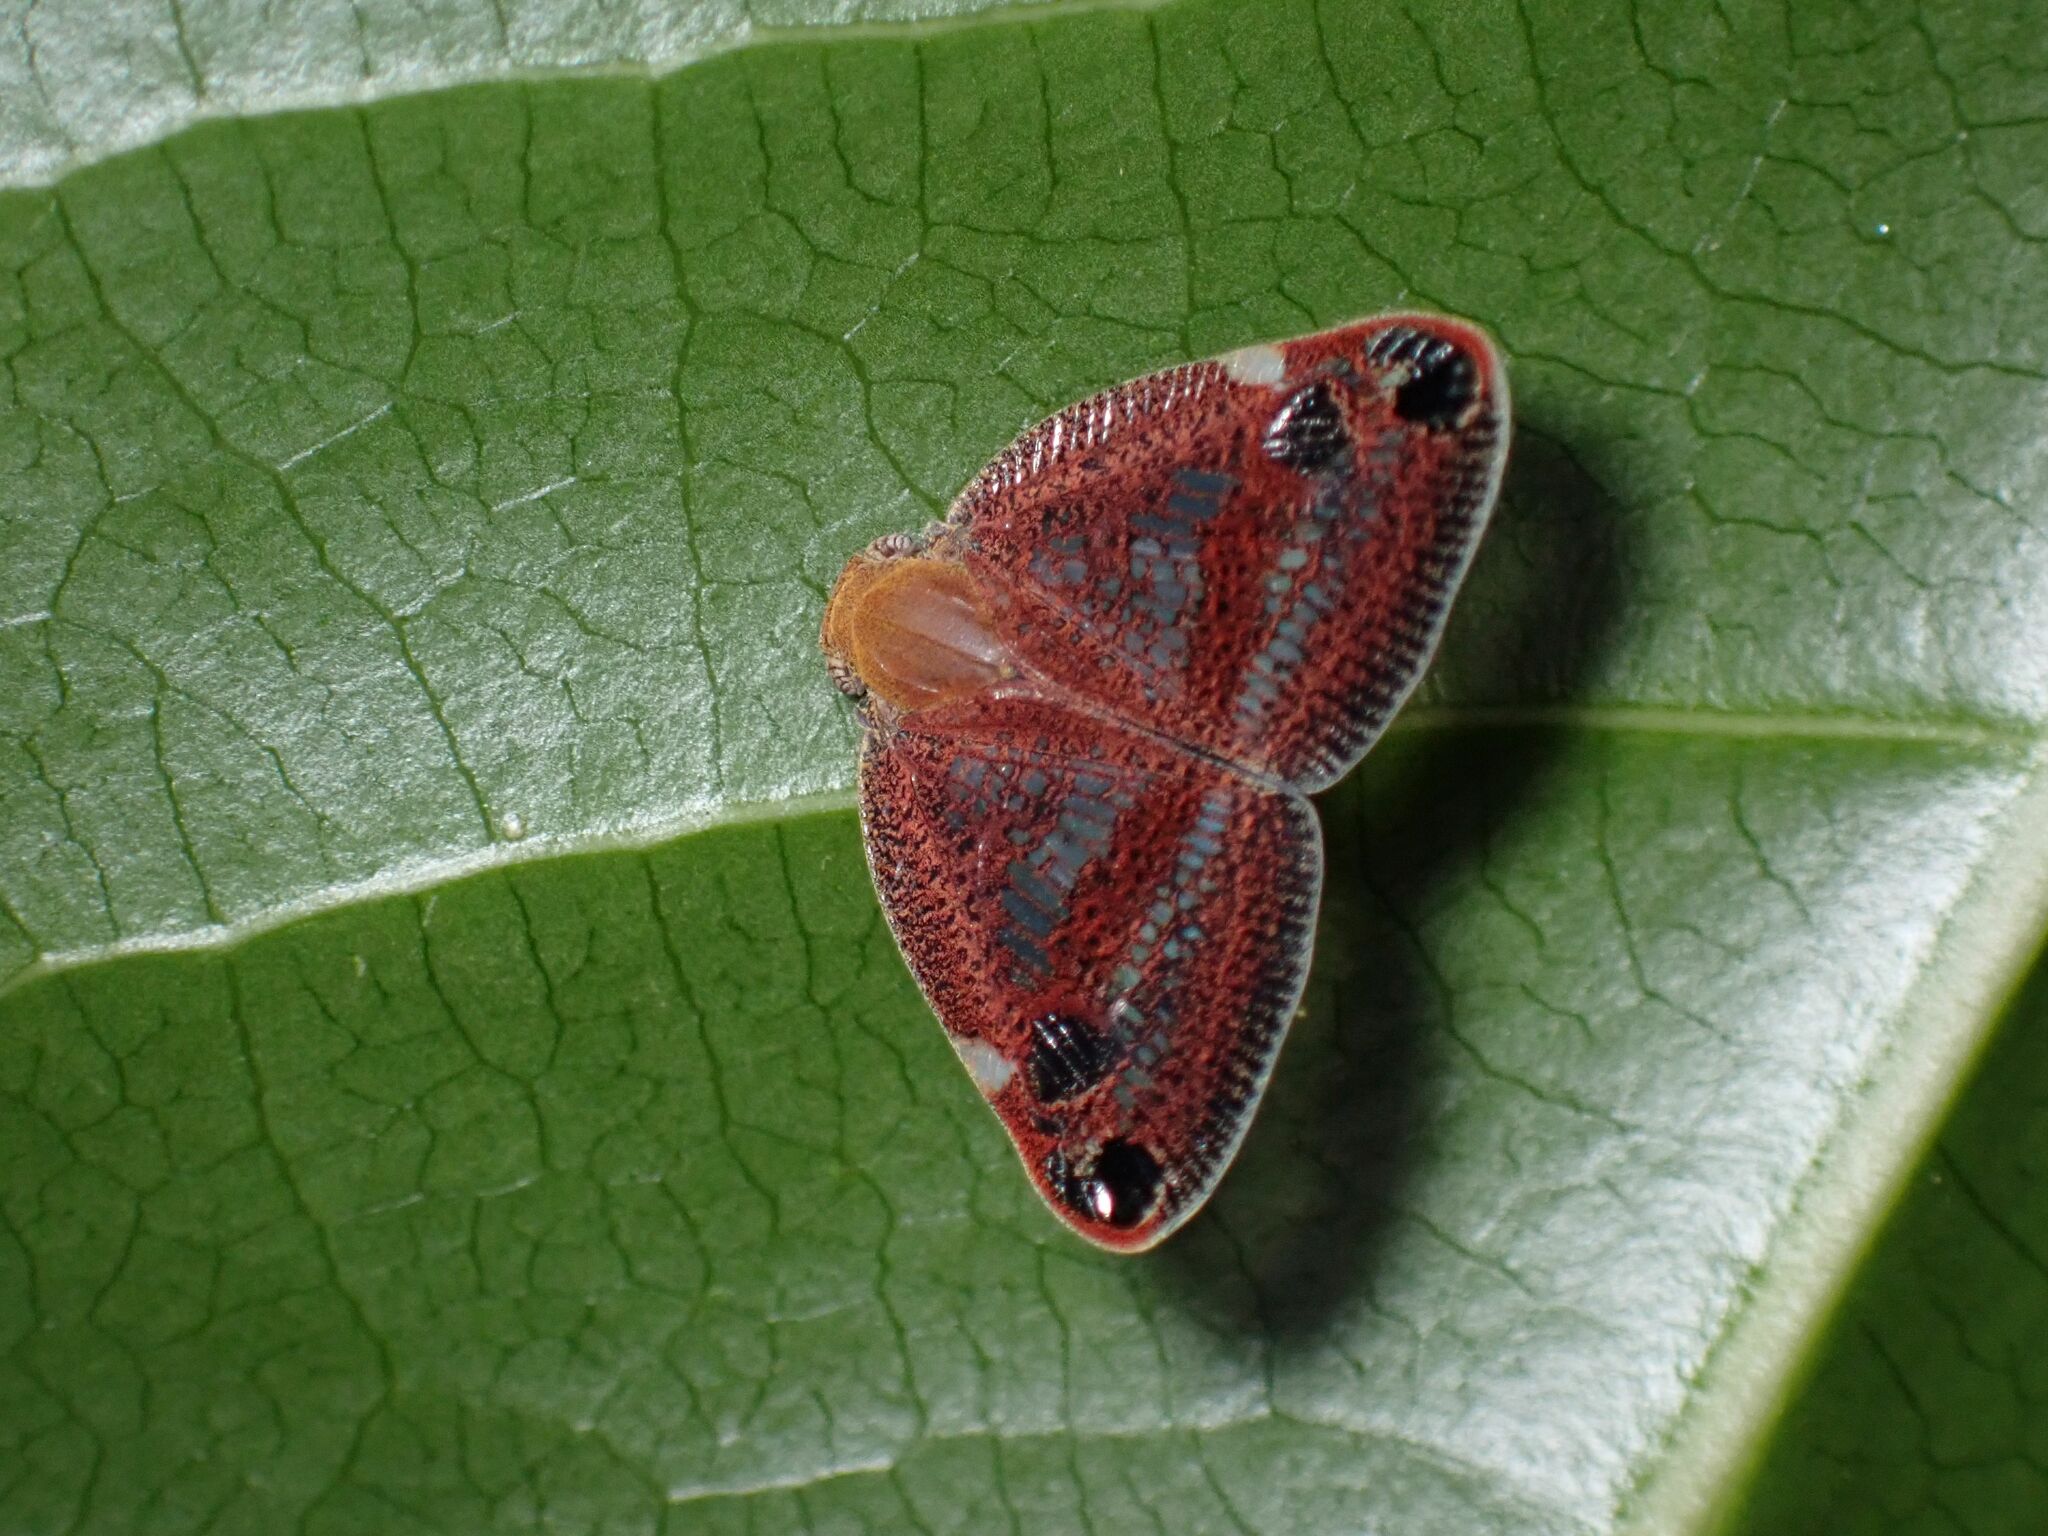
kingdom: Animalia
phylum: Arthropoda
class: Insecta
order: Hemiptera
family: Ricaniidae
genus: Parapiromis
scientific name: Parapiromis translucida
